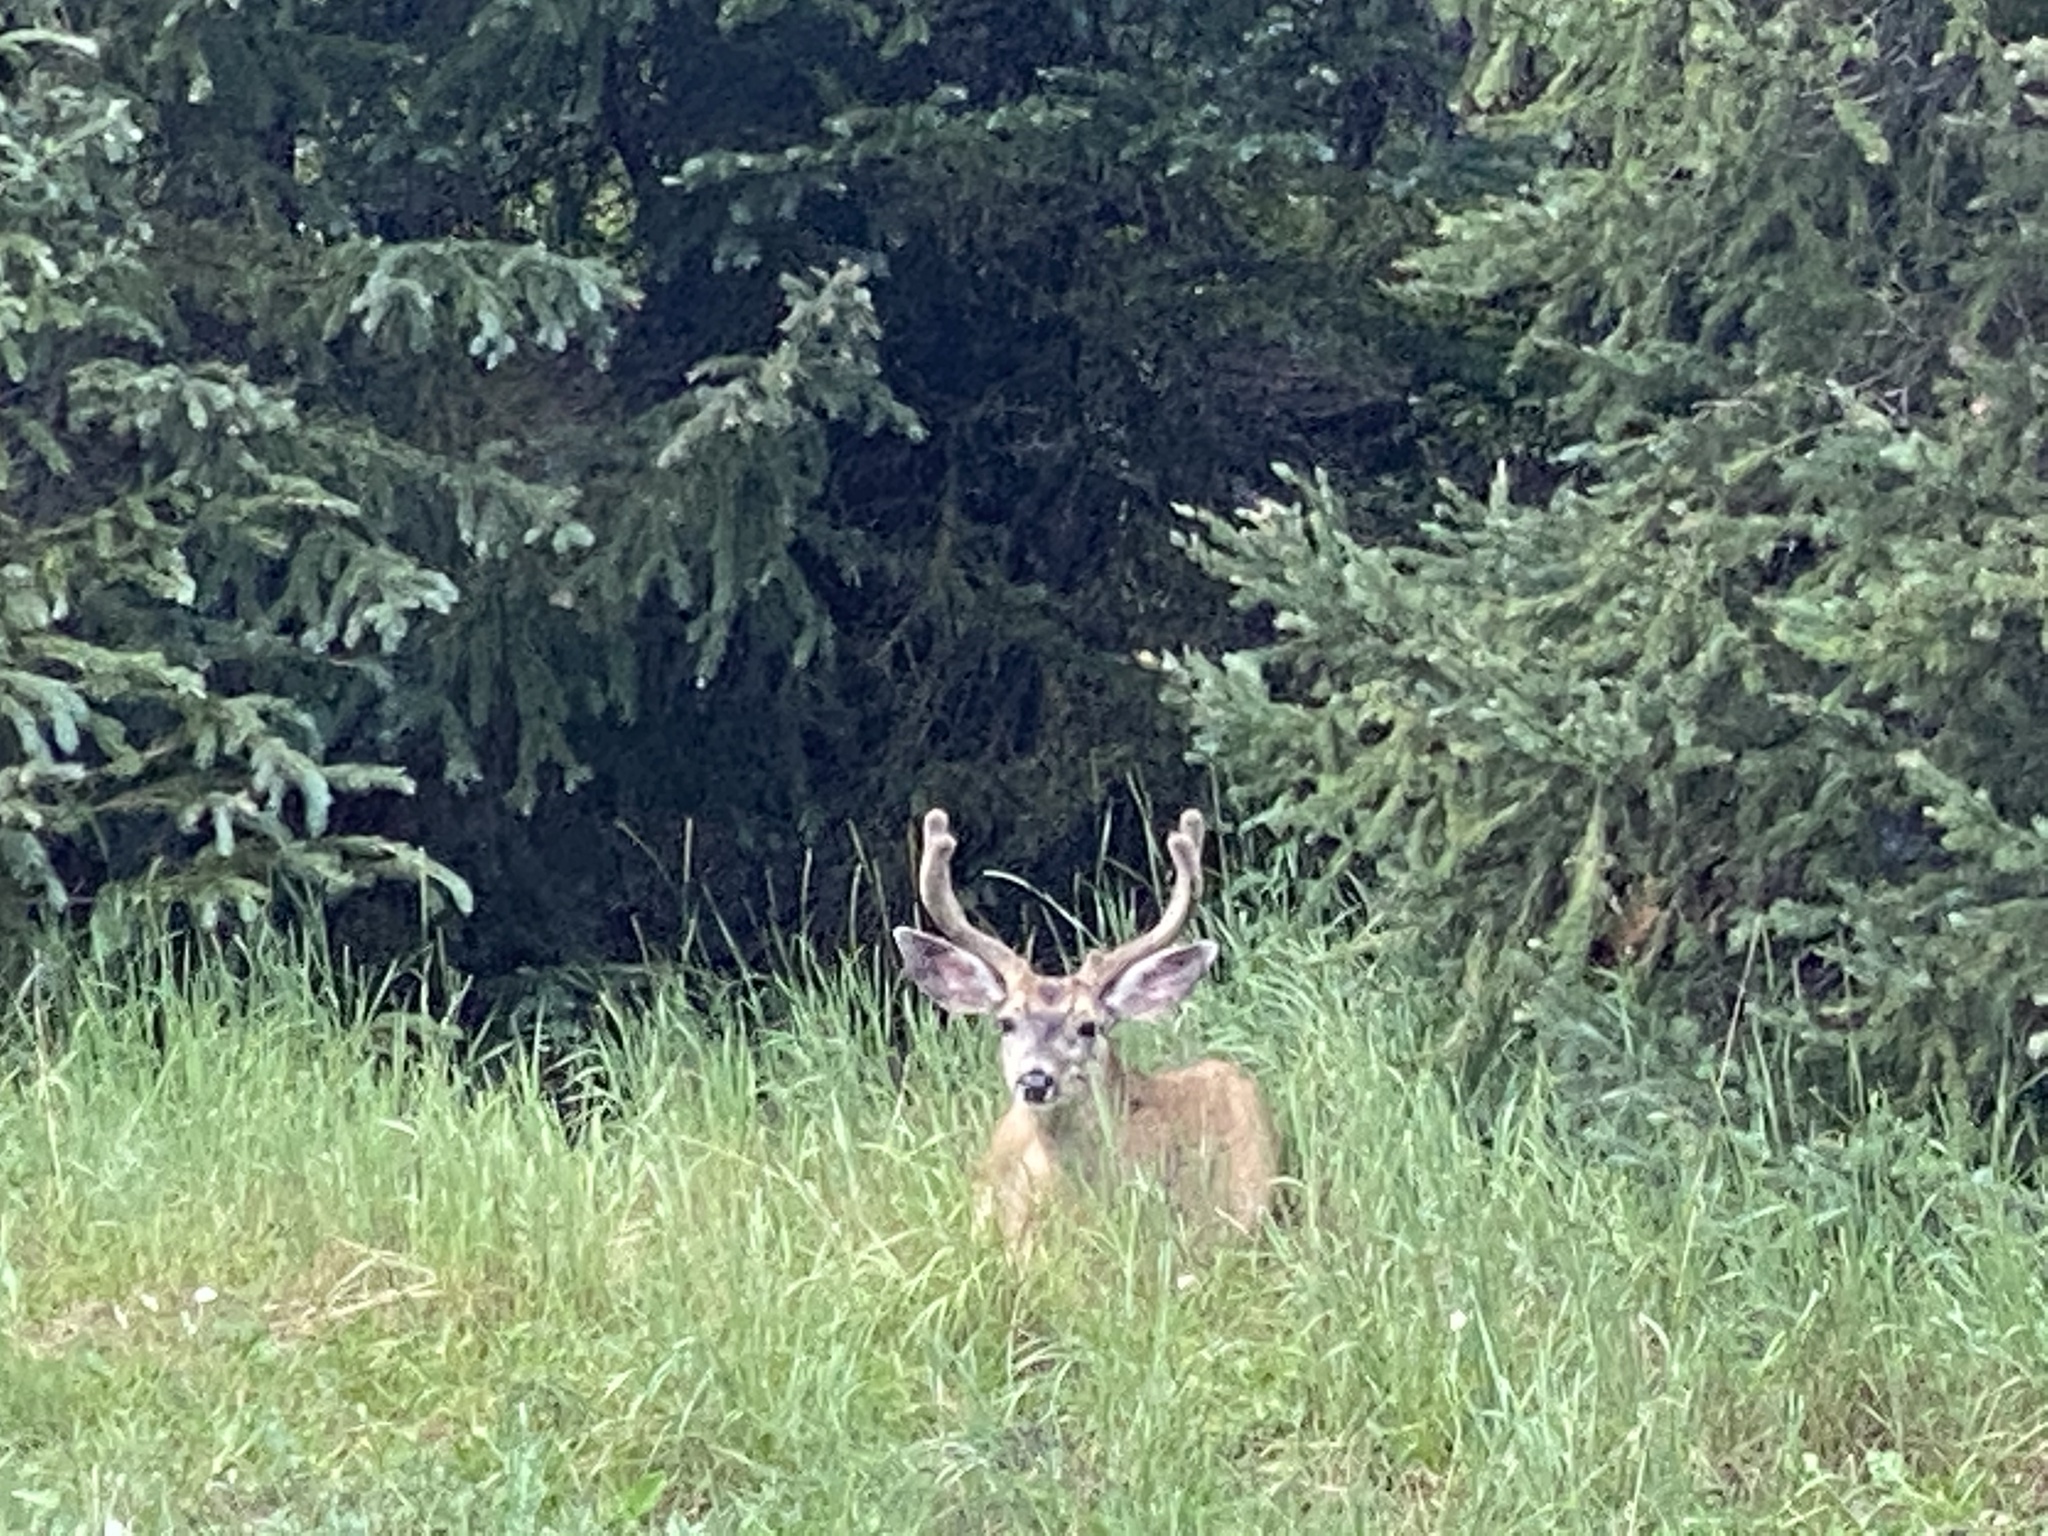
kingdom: Animalia
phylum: Chordata
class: Mammalia
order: Artiodactyla
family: Cervidae
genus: Odocoileus
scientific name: Odocoileus hemionus
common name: Mule deer
